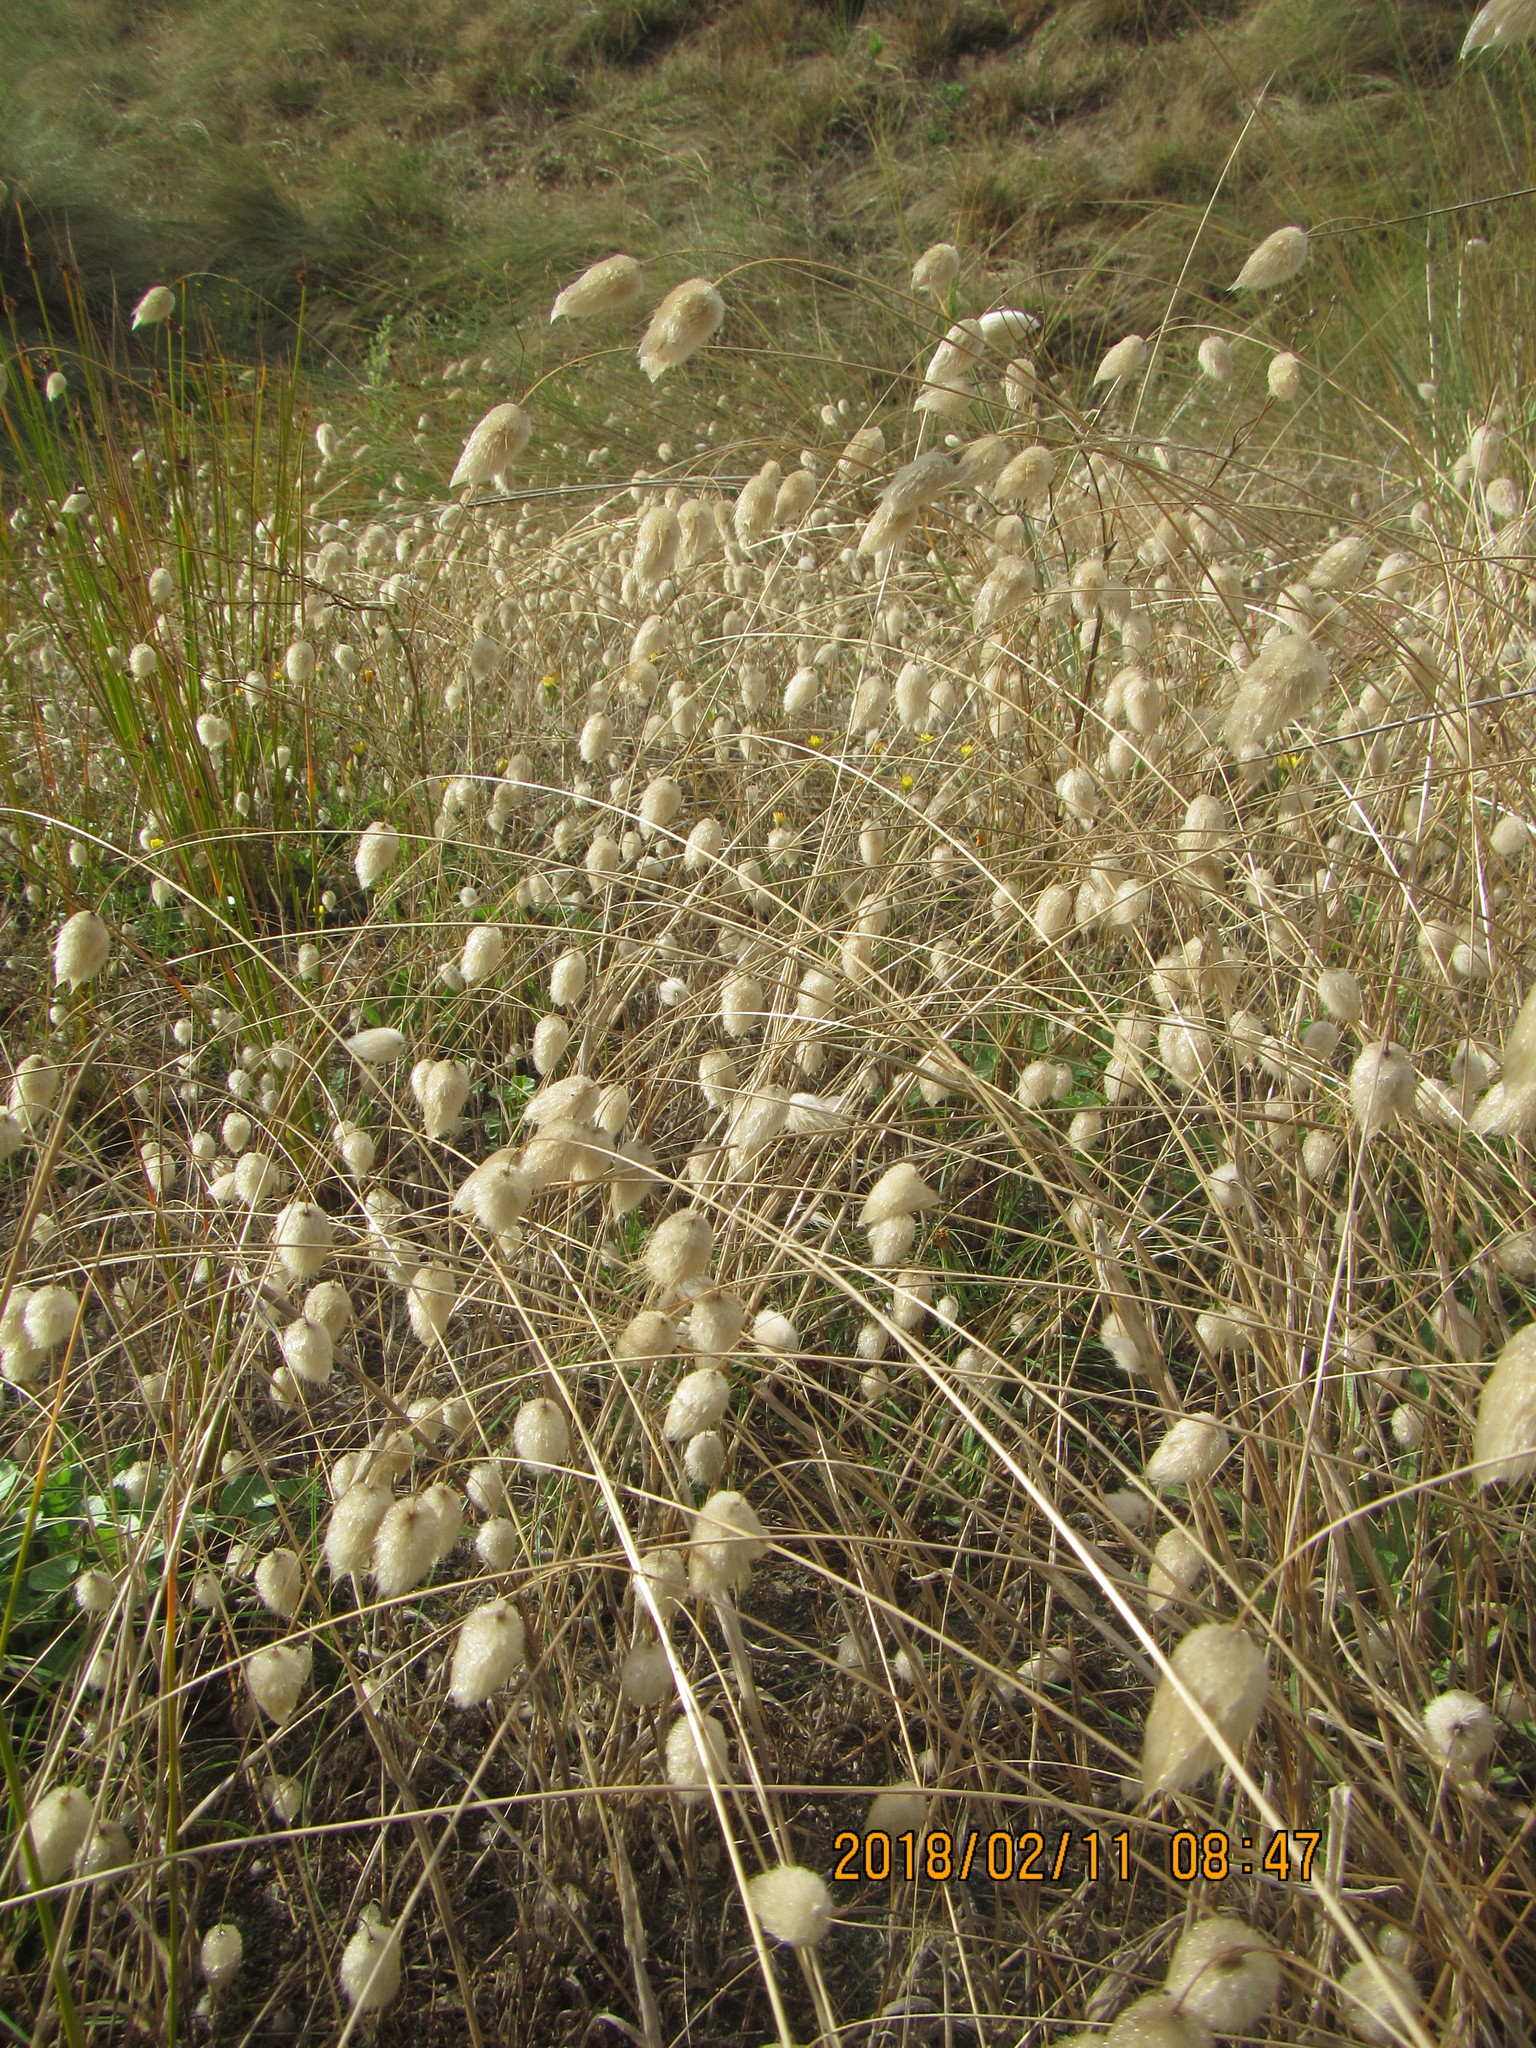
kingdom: Plantae
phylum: Tracheophyta
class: Liliopsida
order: Poales
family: Poaceae
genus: Lagurus
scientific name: Lagurus ovatus
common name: Hare's-tail
